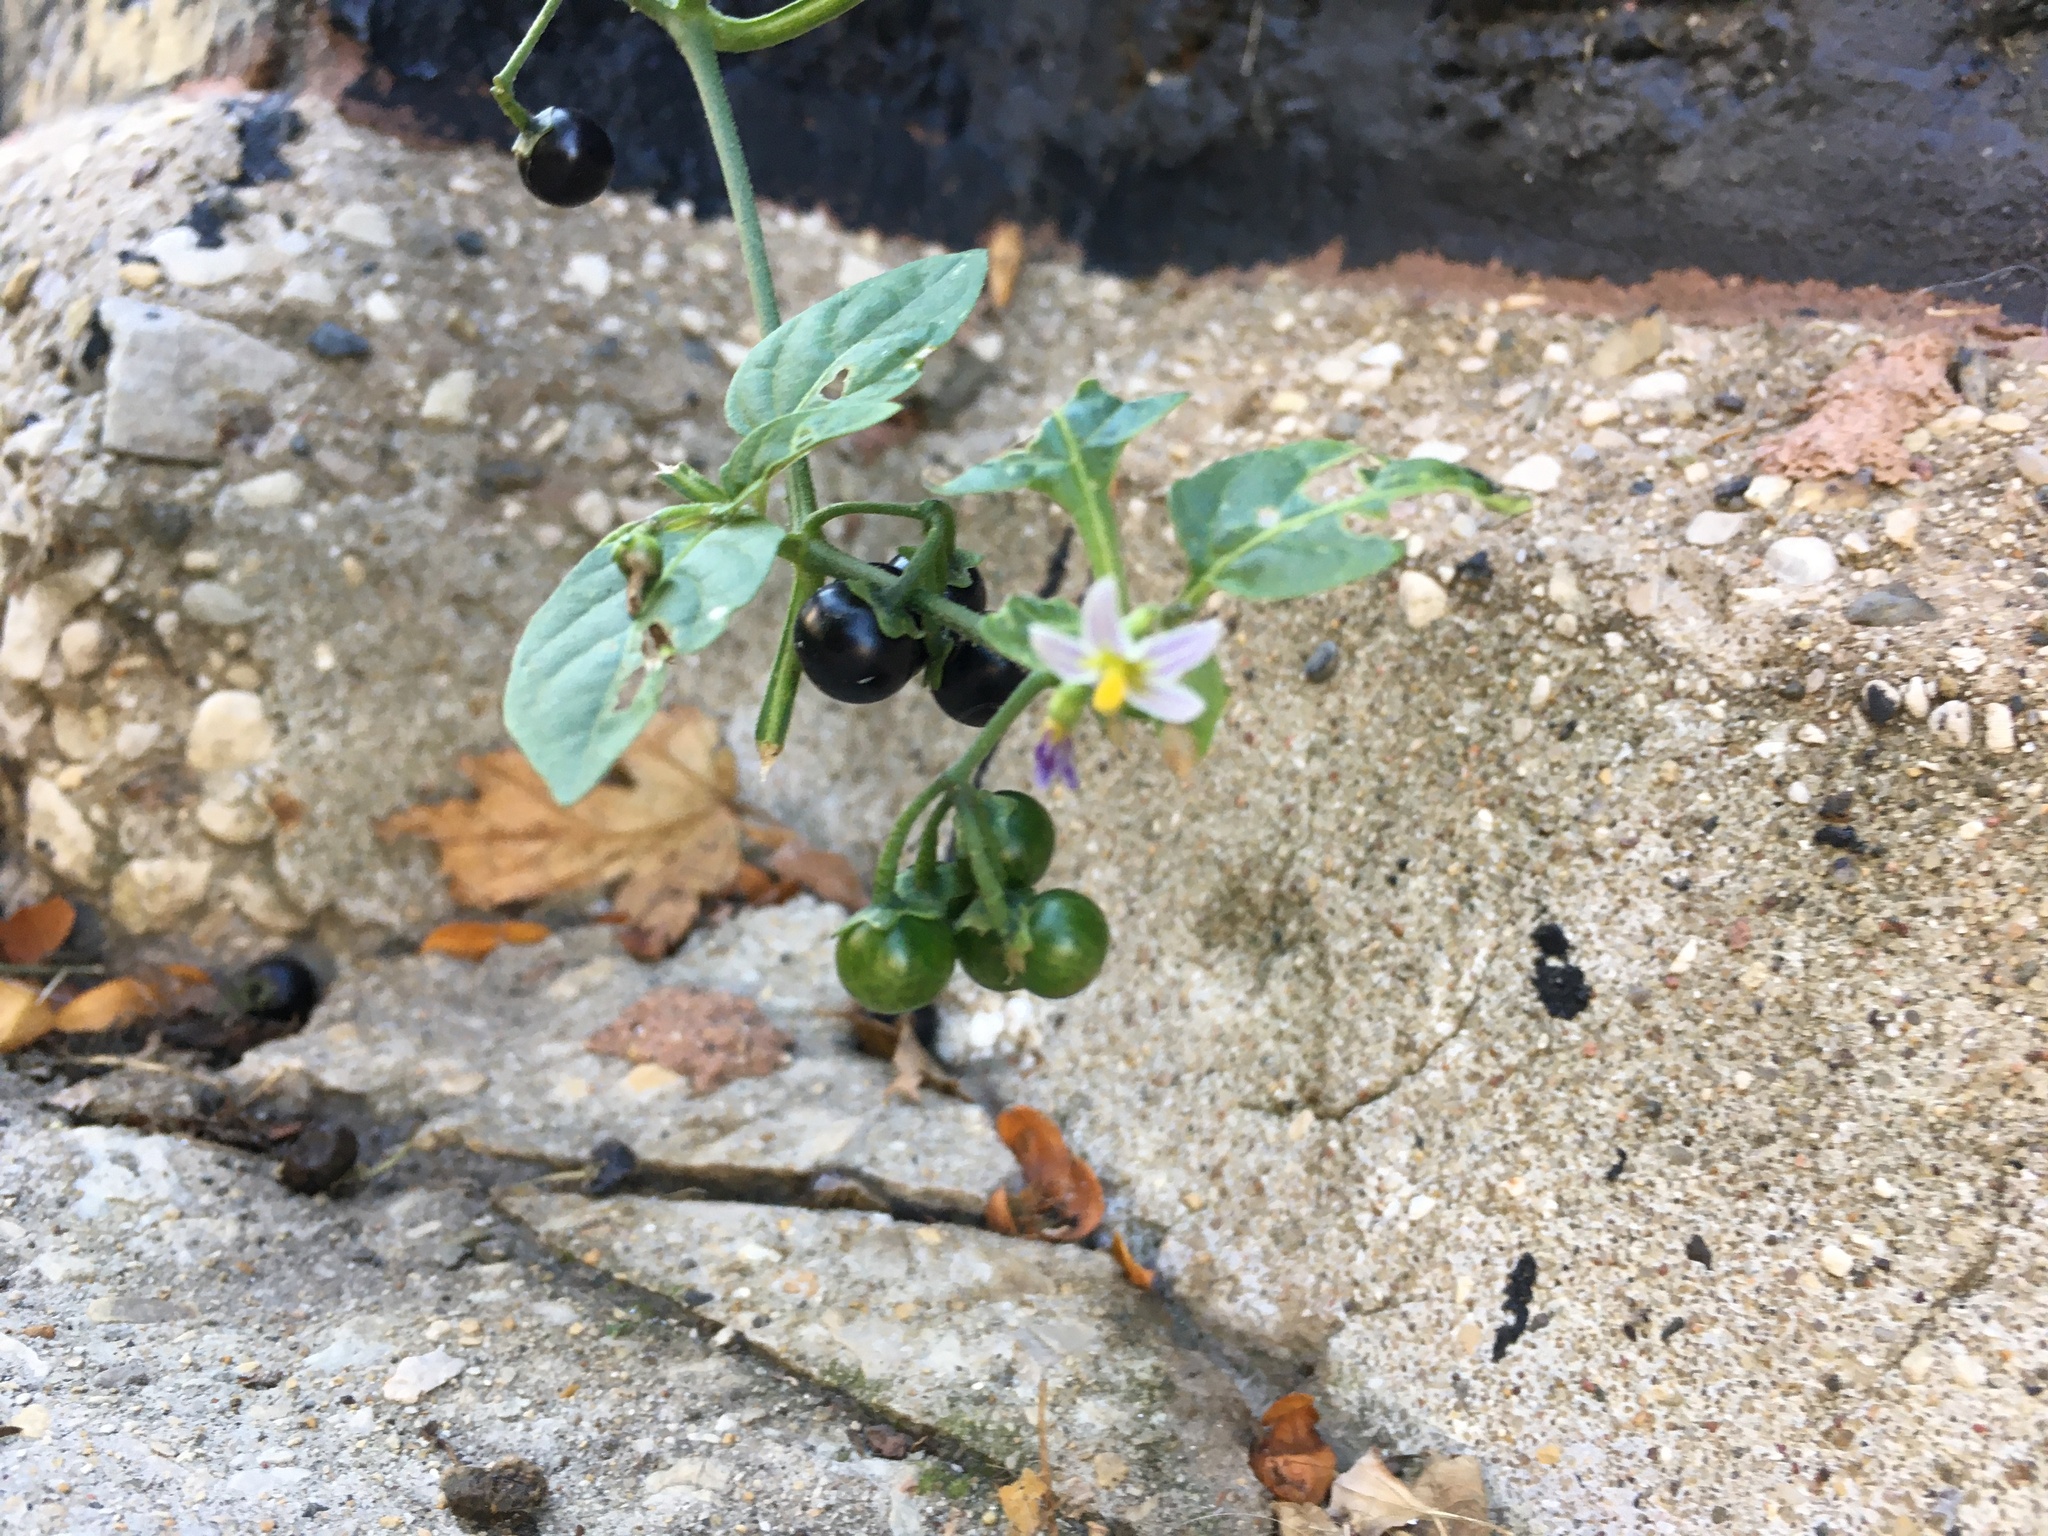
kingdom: Plantae
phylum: Tracheophyta
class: Magnoliopsida
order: Solanales
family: Solanaceae
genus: Solanum
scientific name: Solanum emulans
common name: Eastern black nightshade
